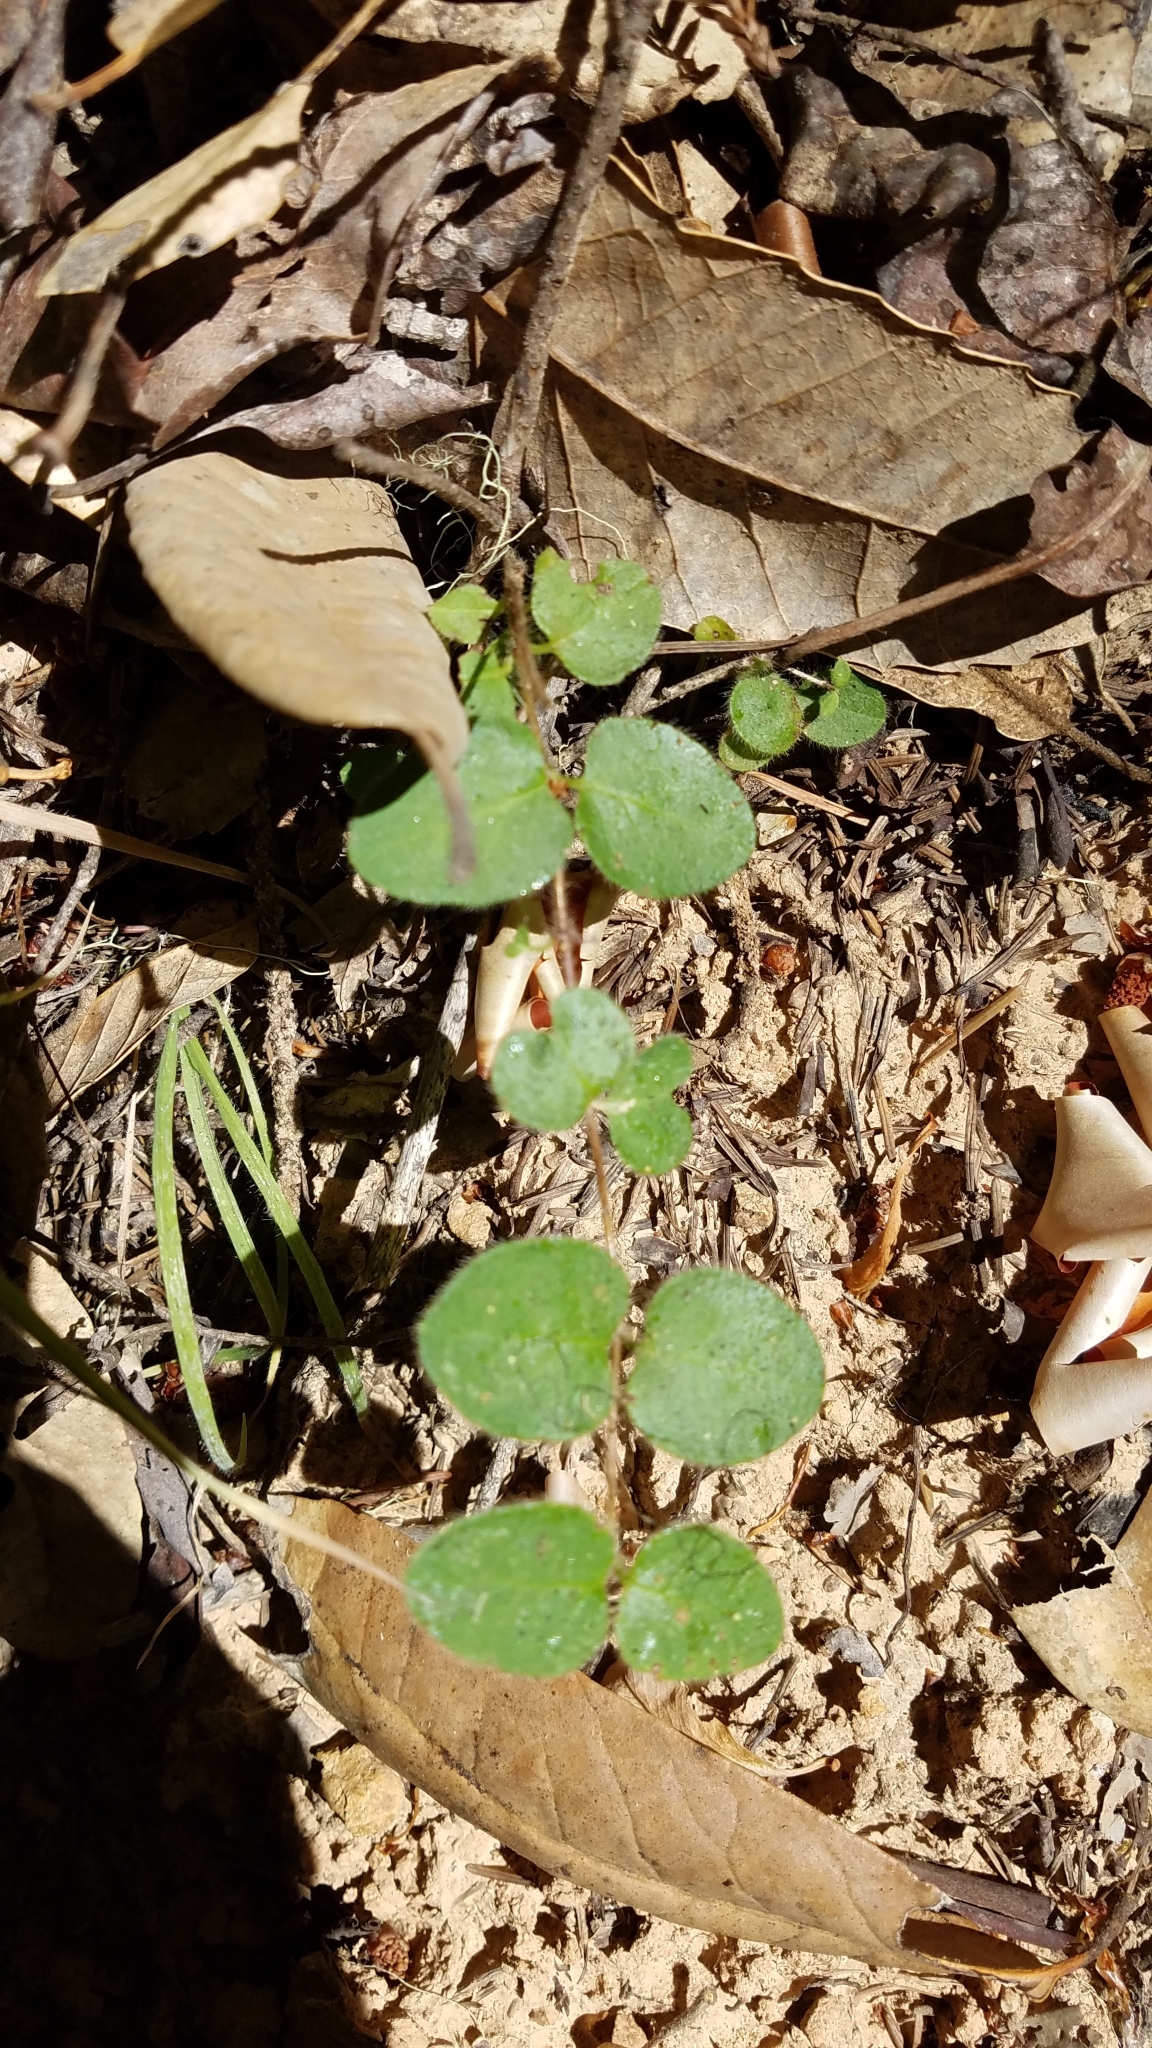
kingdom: Plantae
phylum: Tracheophyta
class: Magnoliopsida
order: Dipsacales
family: Caprifoliaceae
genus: Lonicera
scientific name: Lonicera hispidula
